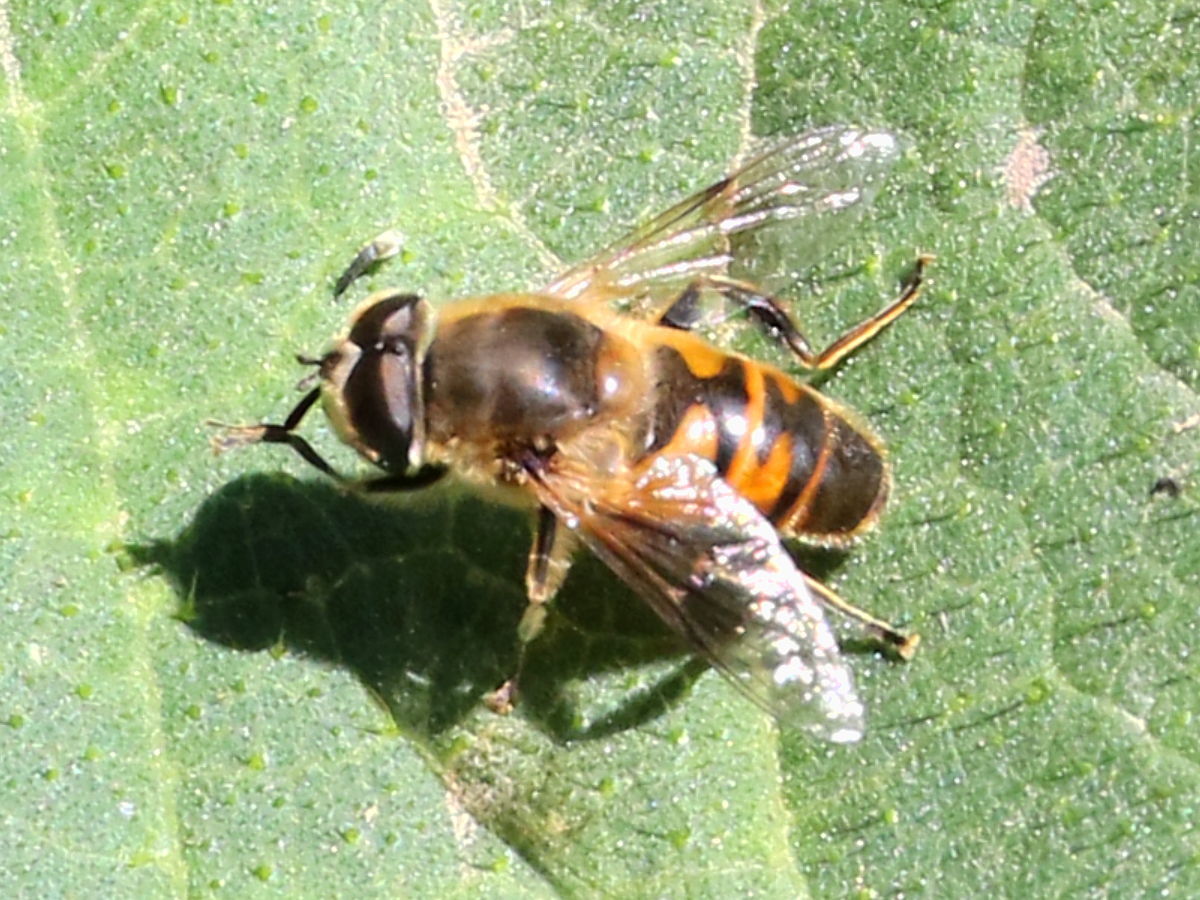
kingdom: Animalia
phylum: Arthropoda
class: Insecta
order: Diptera
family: Syrphidae
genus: Eristalis
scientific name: Eristalis tenax
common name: Drone fly
